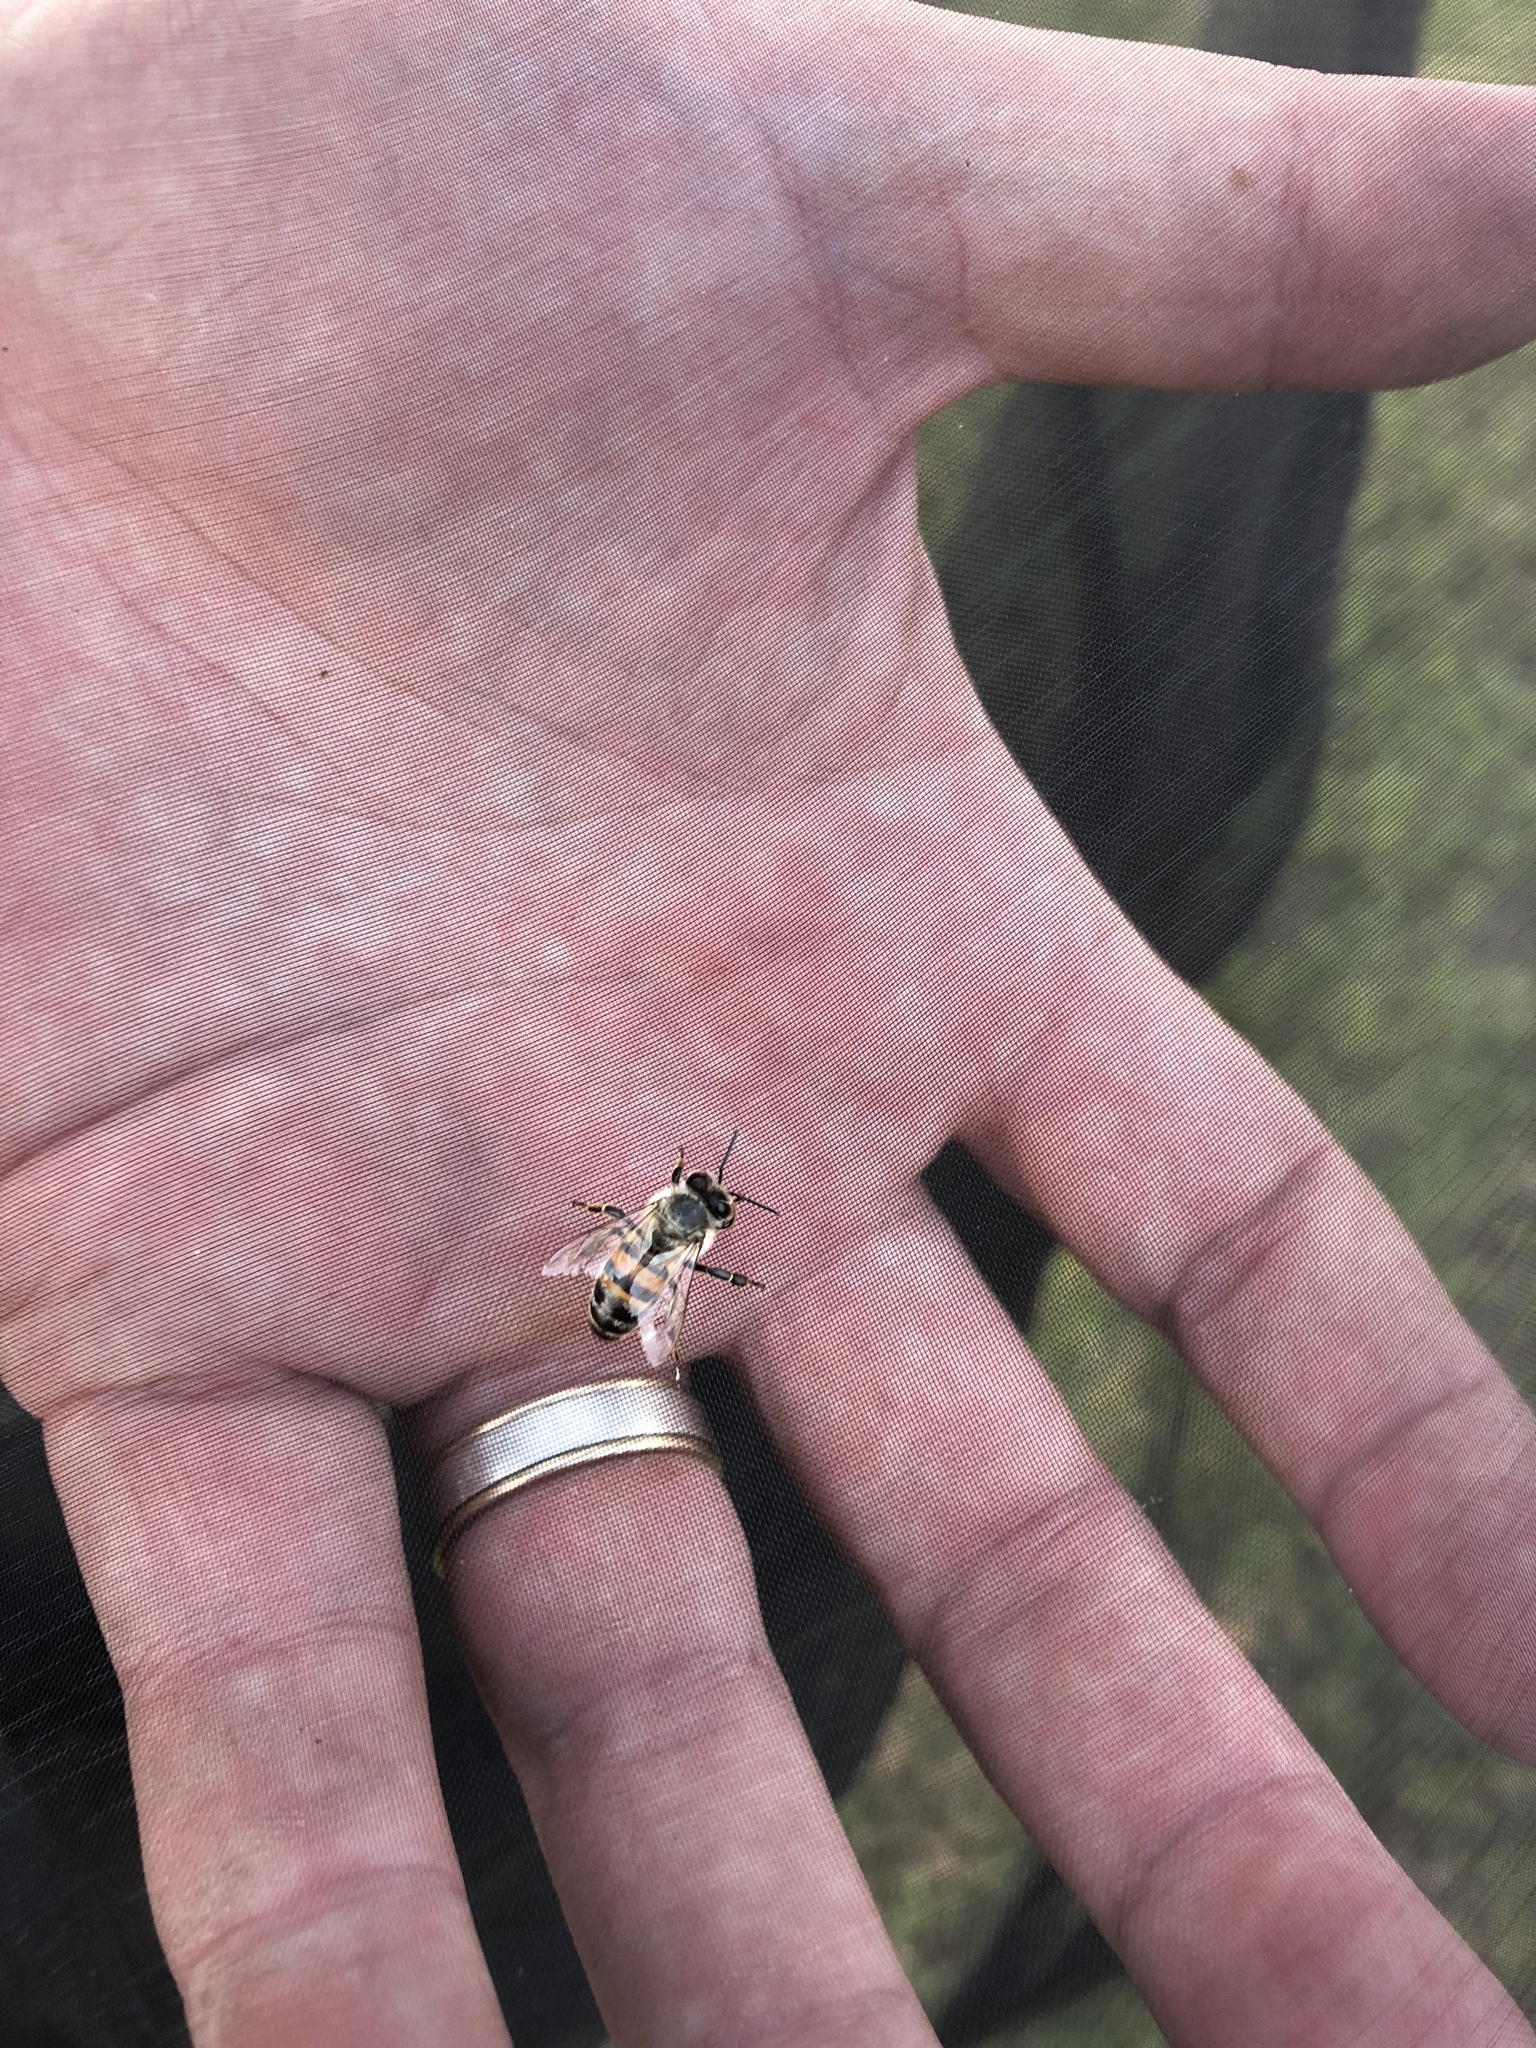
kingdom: Animalia
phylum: Arthropoda
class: Insecta
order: Hymenoptera
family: Apidae
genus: Apis
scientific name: Apis mellifera
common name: Honey bee
